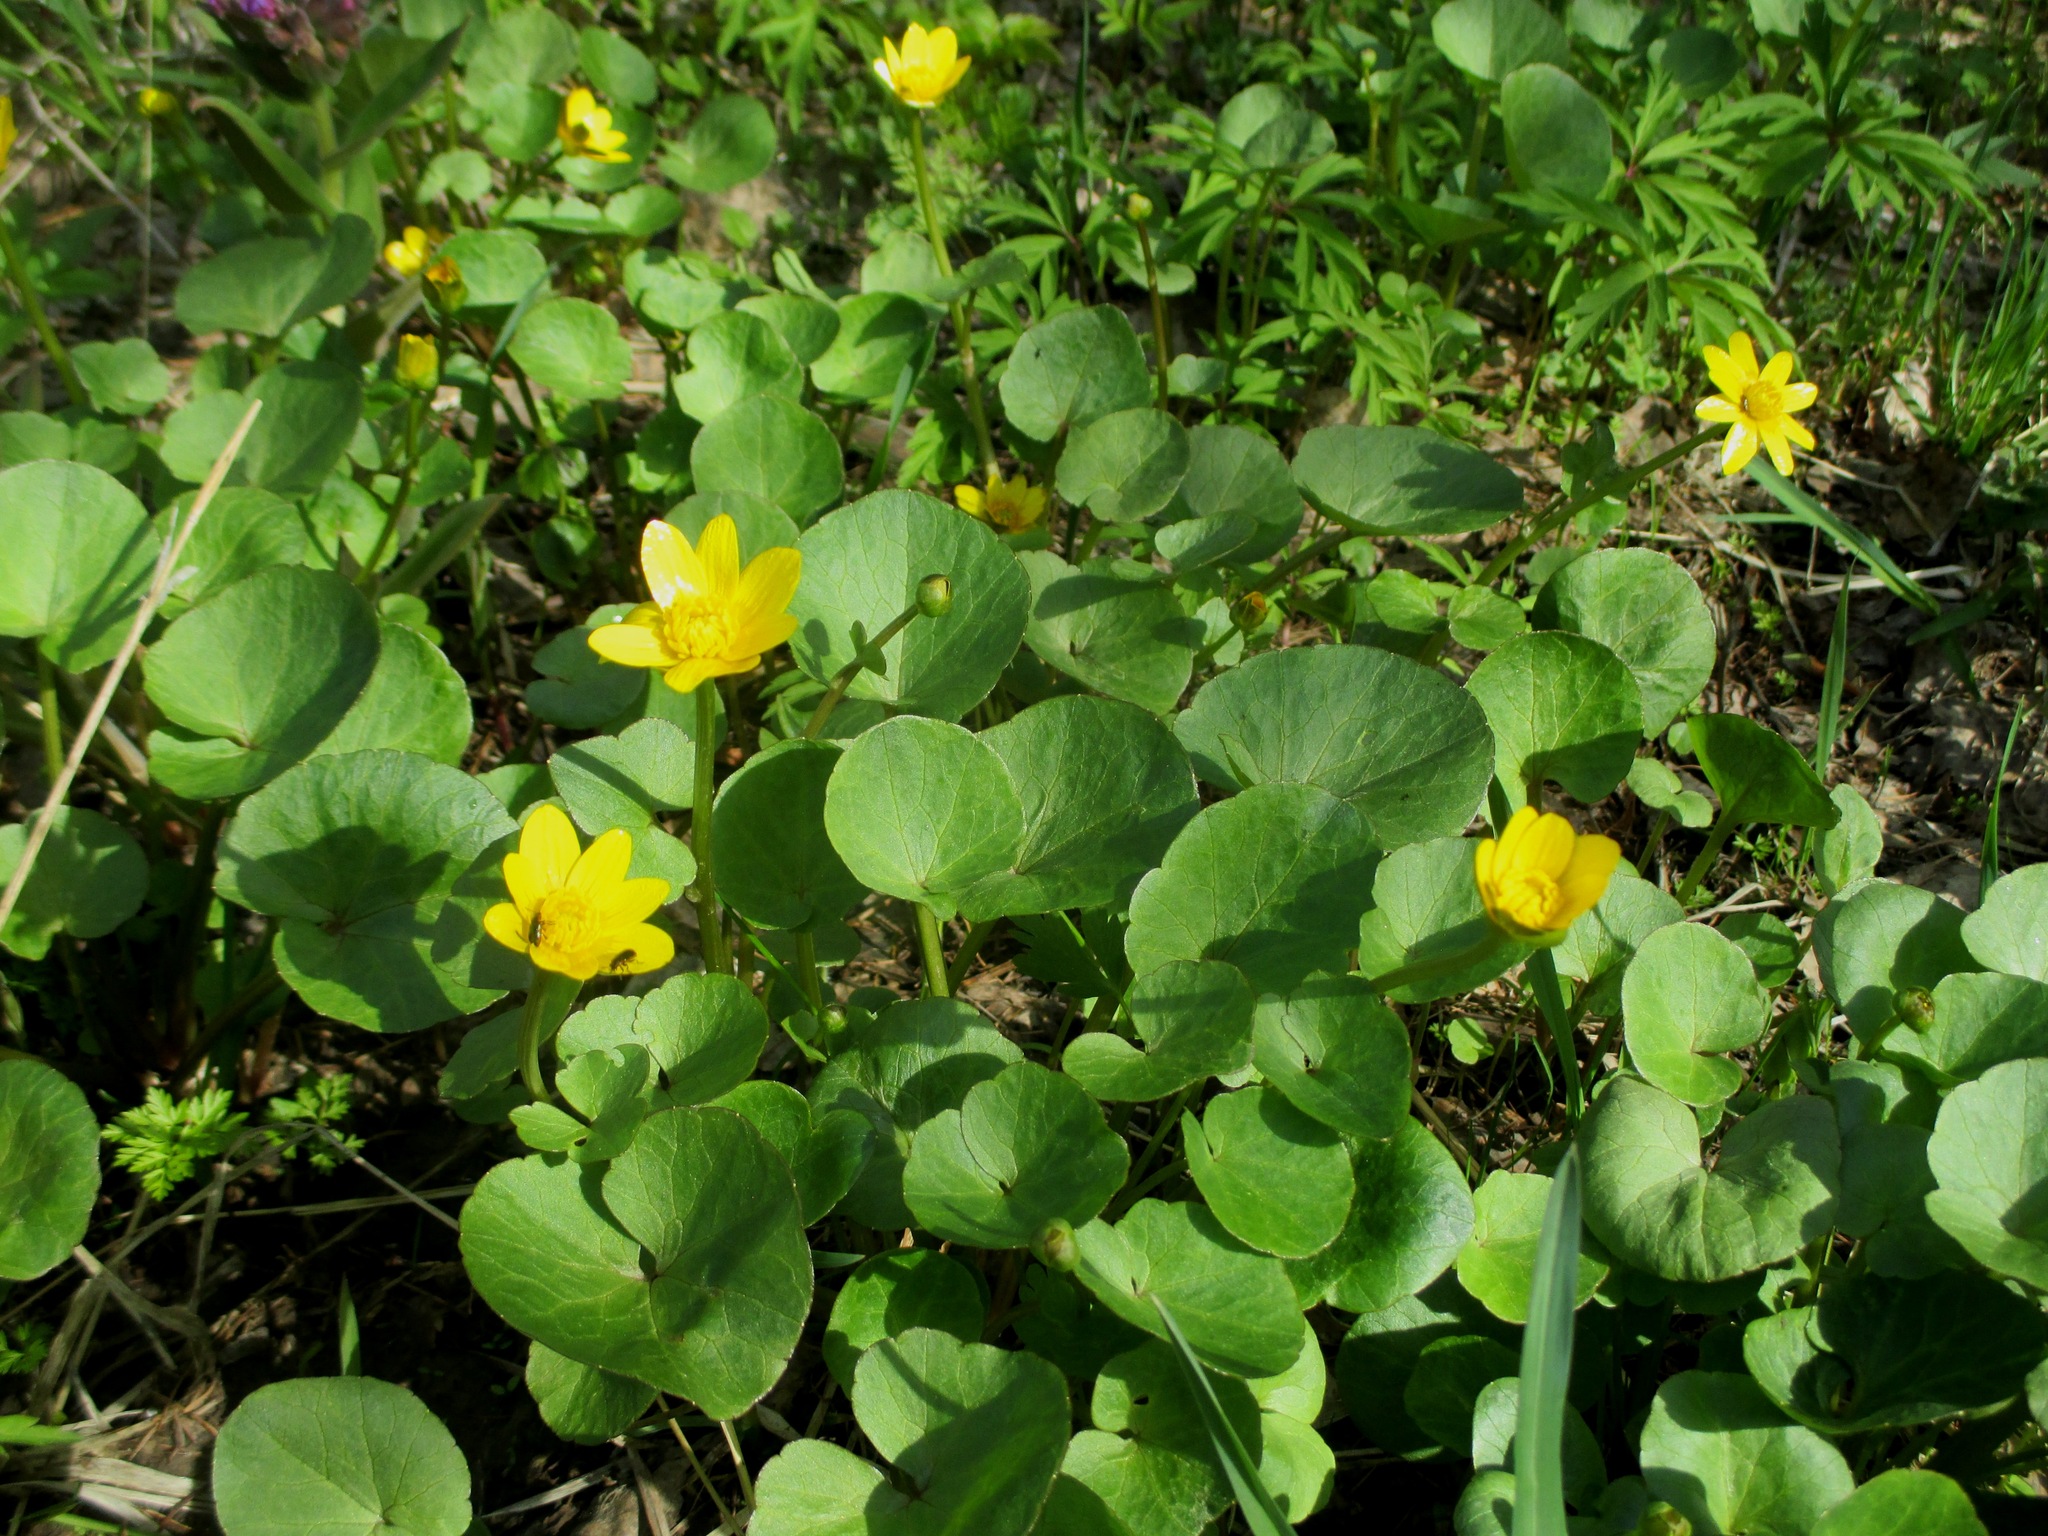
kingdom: Plantae
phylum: Tracheophyta
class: Magnoliopsida
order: Ranunculales
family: Ranunculaceae
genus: Ficaria
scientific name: Ficaria verna
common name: Lesser celandine
